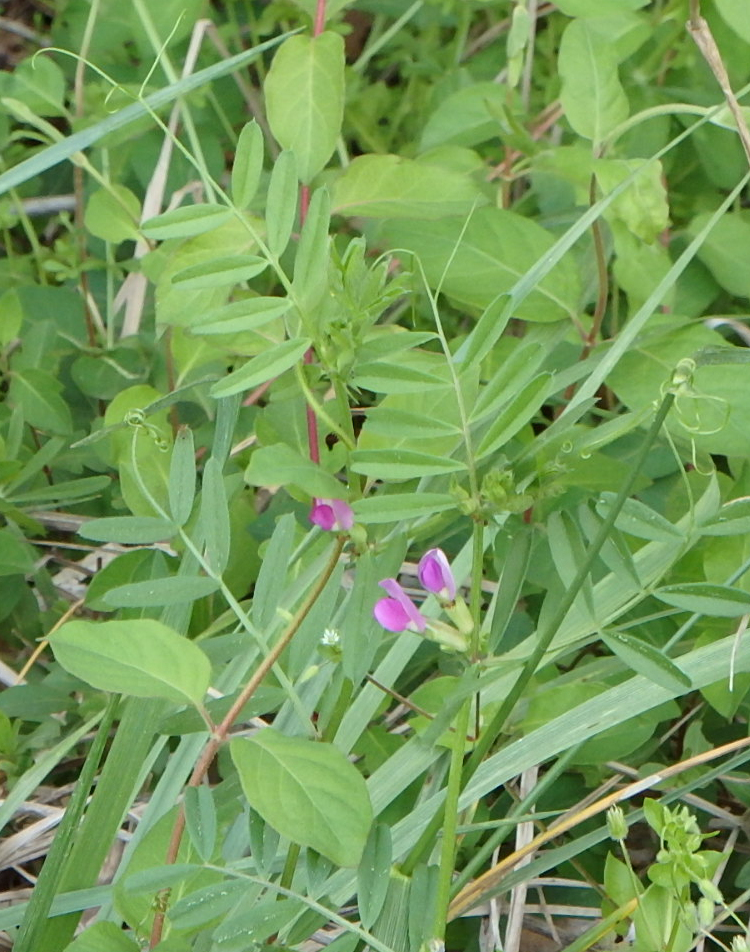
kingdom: Plantae
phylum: Tracheophyta
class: Magnoliopsida
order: Fabales
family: Fabaceae
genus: Vicia
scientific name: Vicia sativa
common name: Garden vetch
